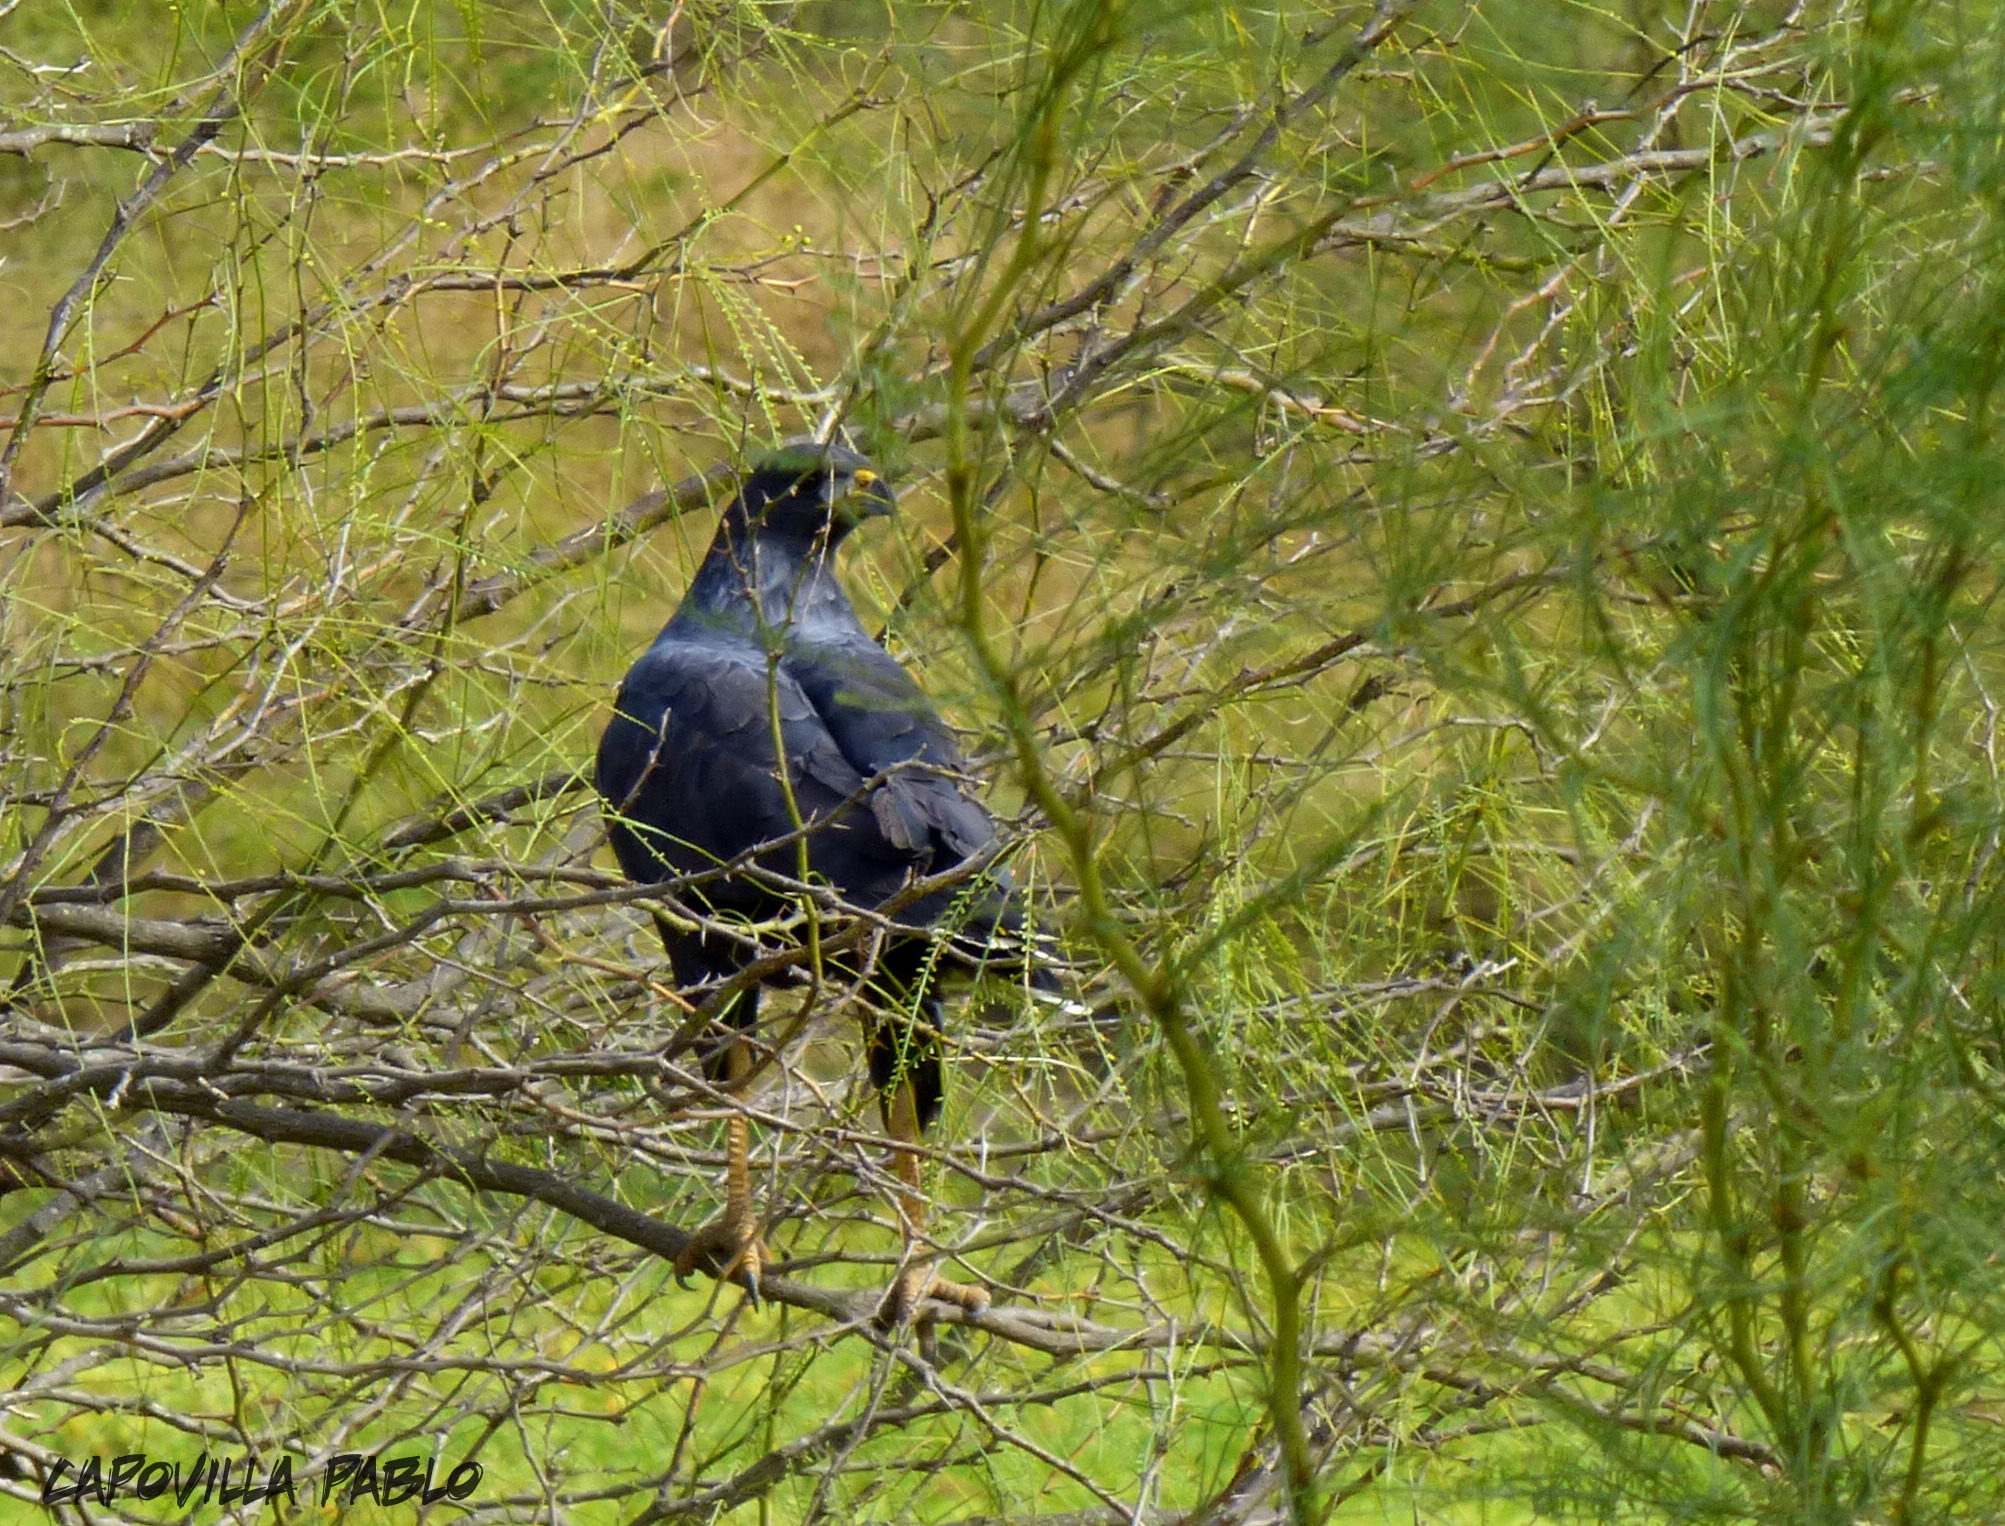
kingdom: Animalia
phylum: Chordata
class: Aves
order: Accipitriformes
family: Accipitridae
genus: Buteogallus
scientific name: Buteogallus urubitinga
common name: Great black hawk
